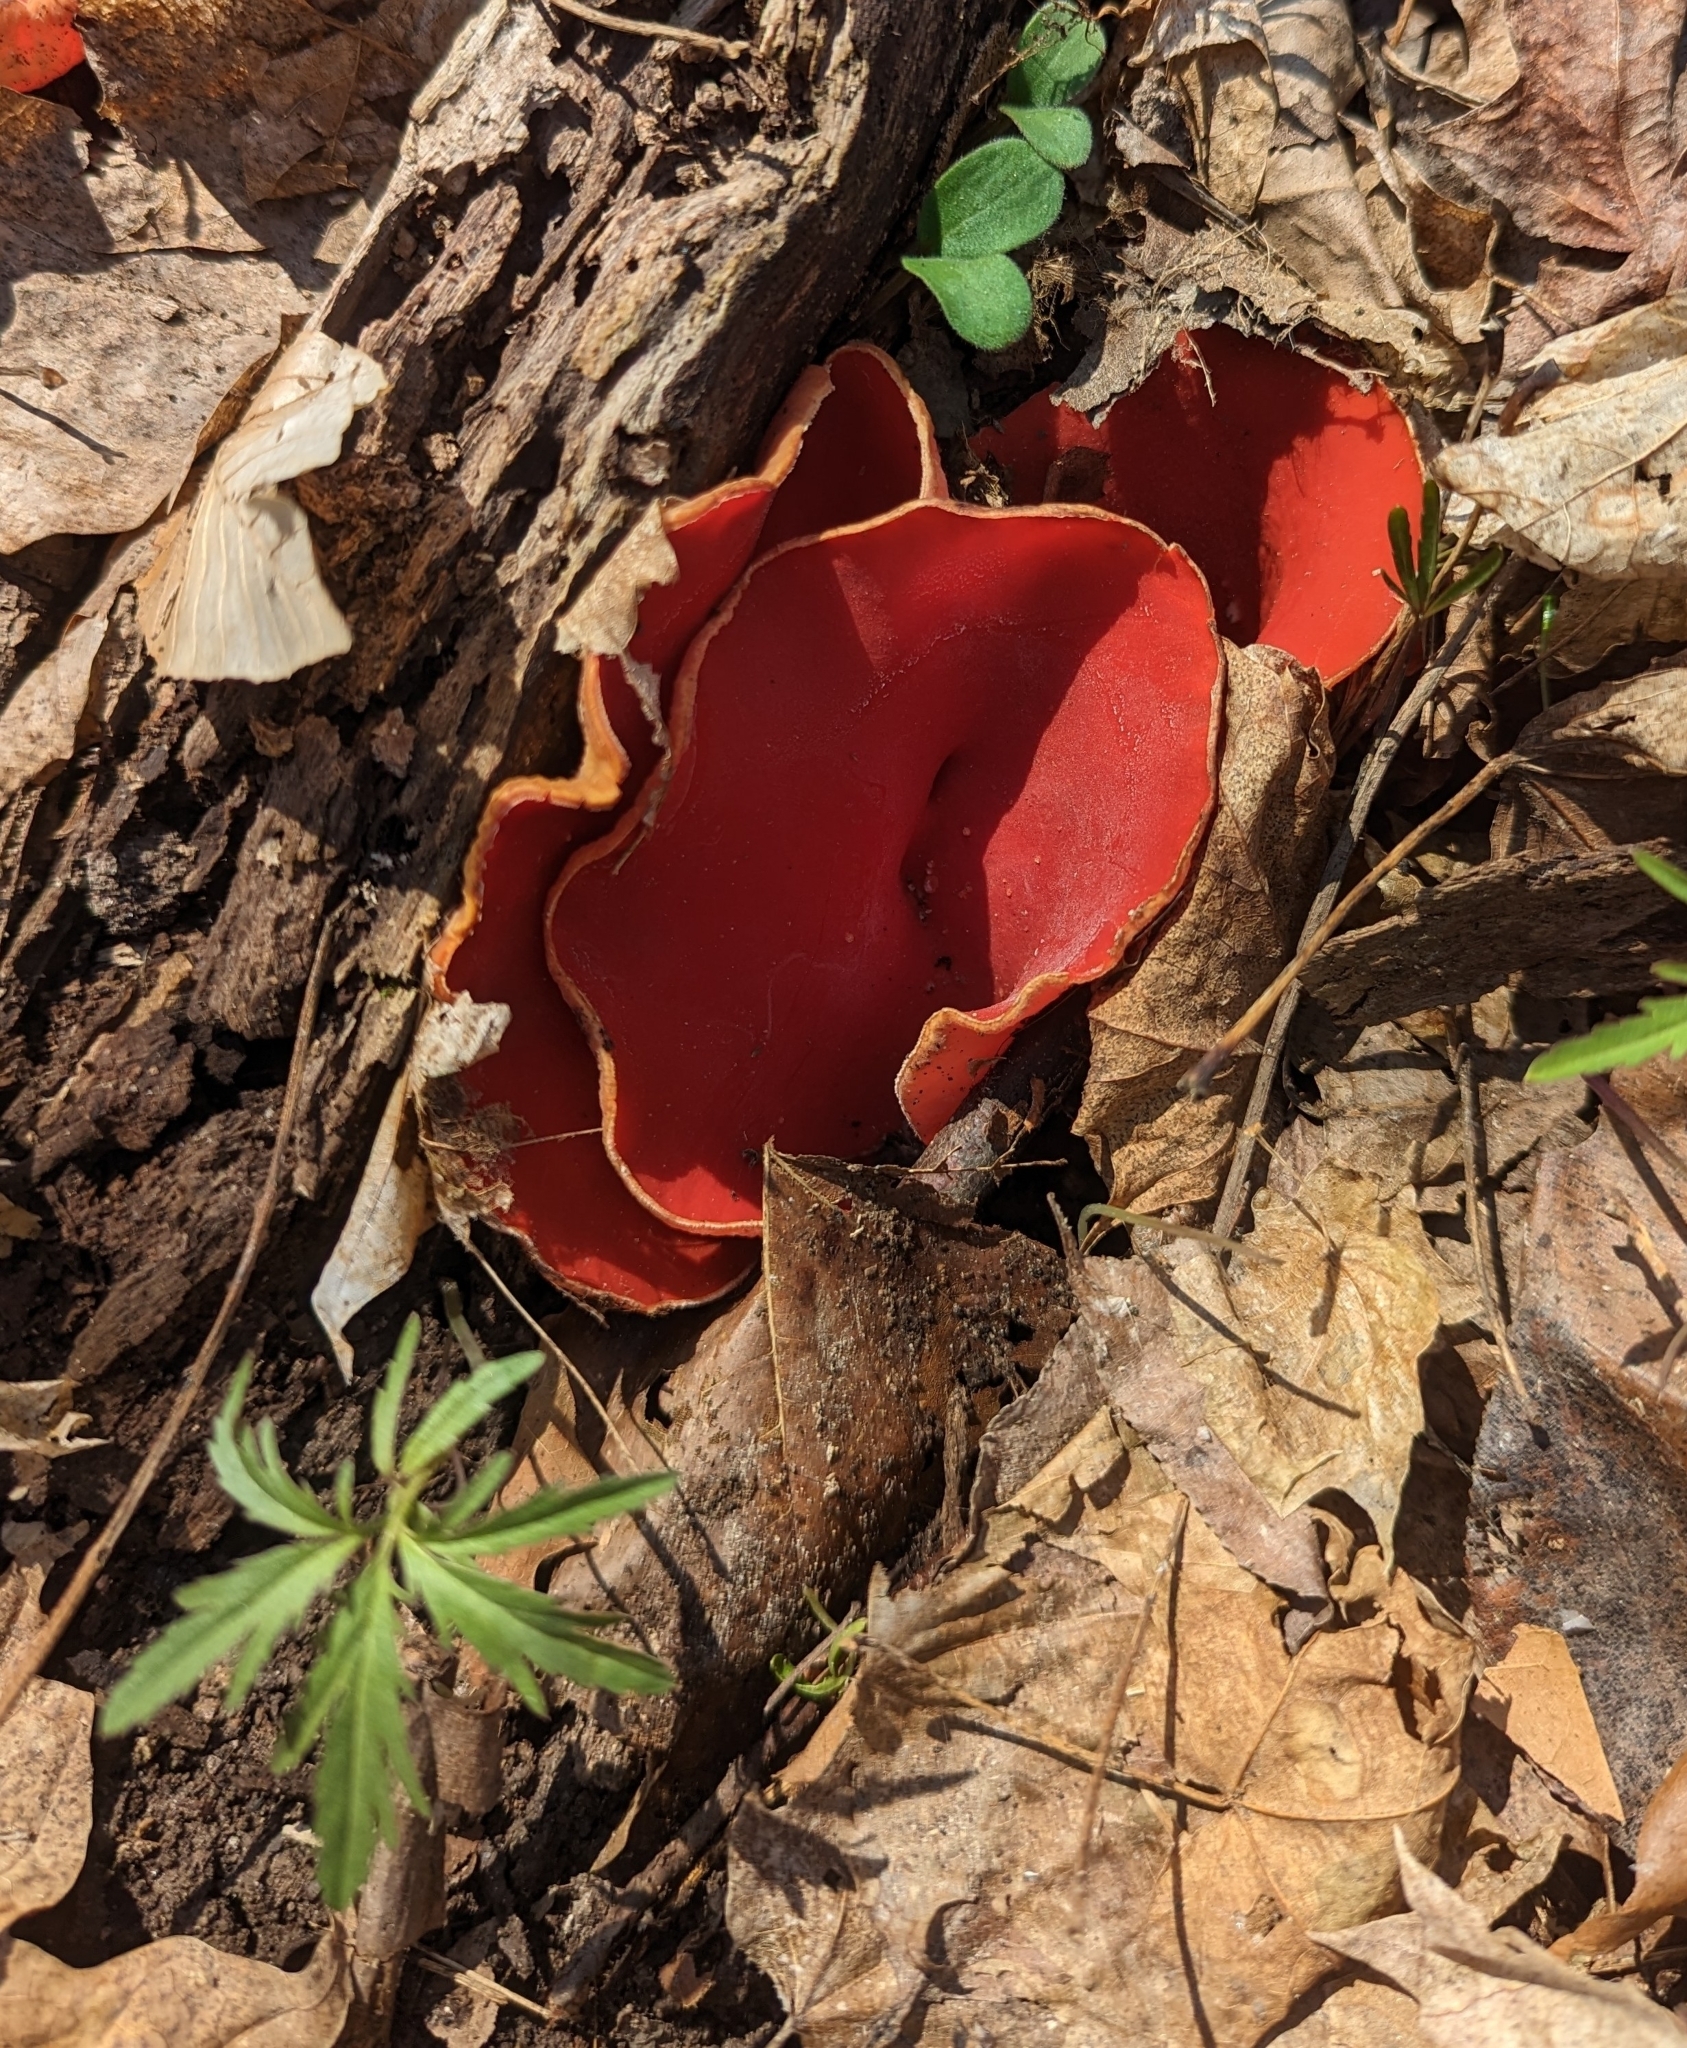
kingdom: Fungi
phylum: Ascomycota
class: Pezizomycetes
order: Pezizales
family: Sarcoscyphaceae
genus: Sarcoscypha
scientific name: Sarcoscypha austriaca
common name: Scarlet elfcup
